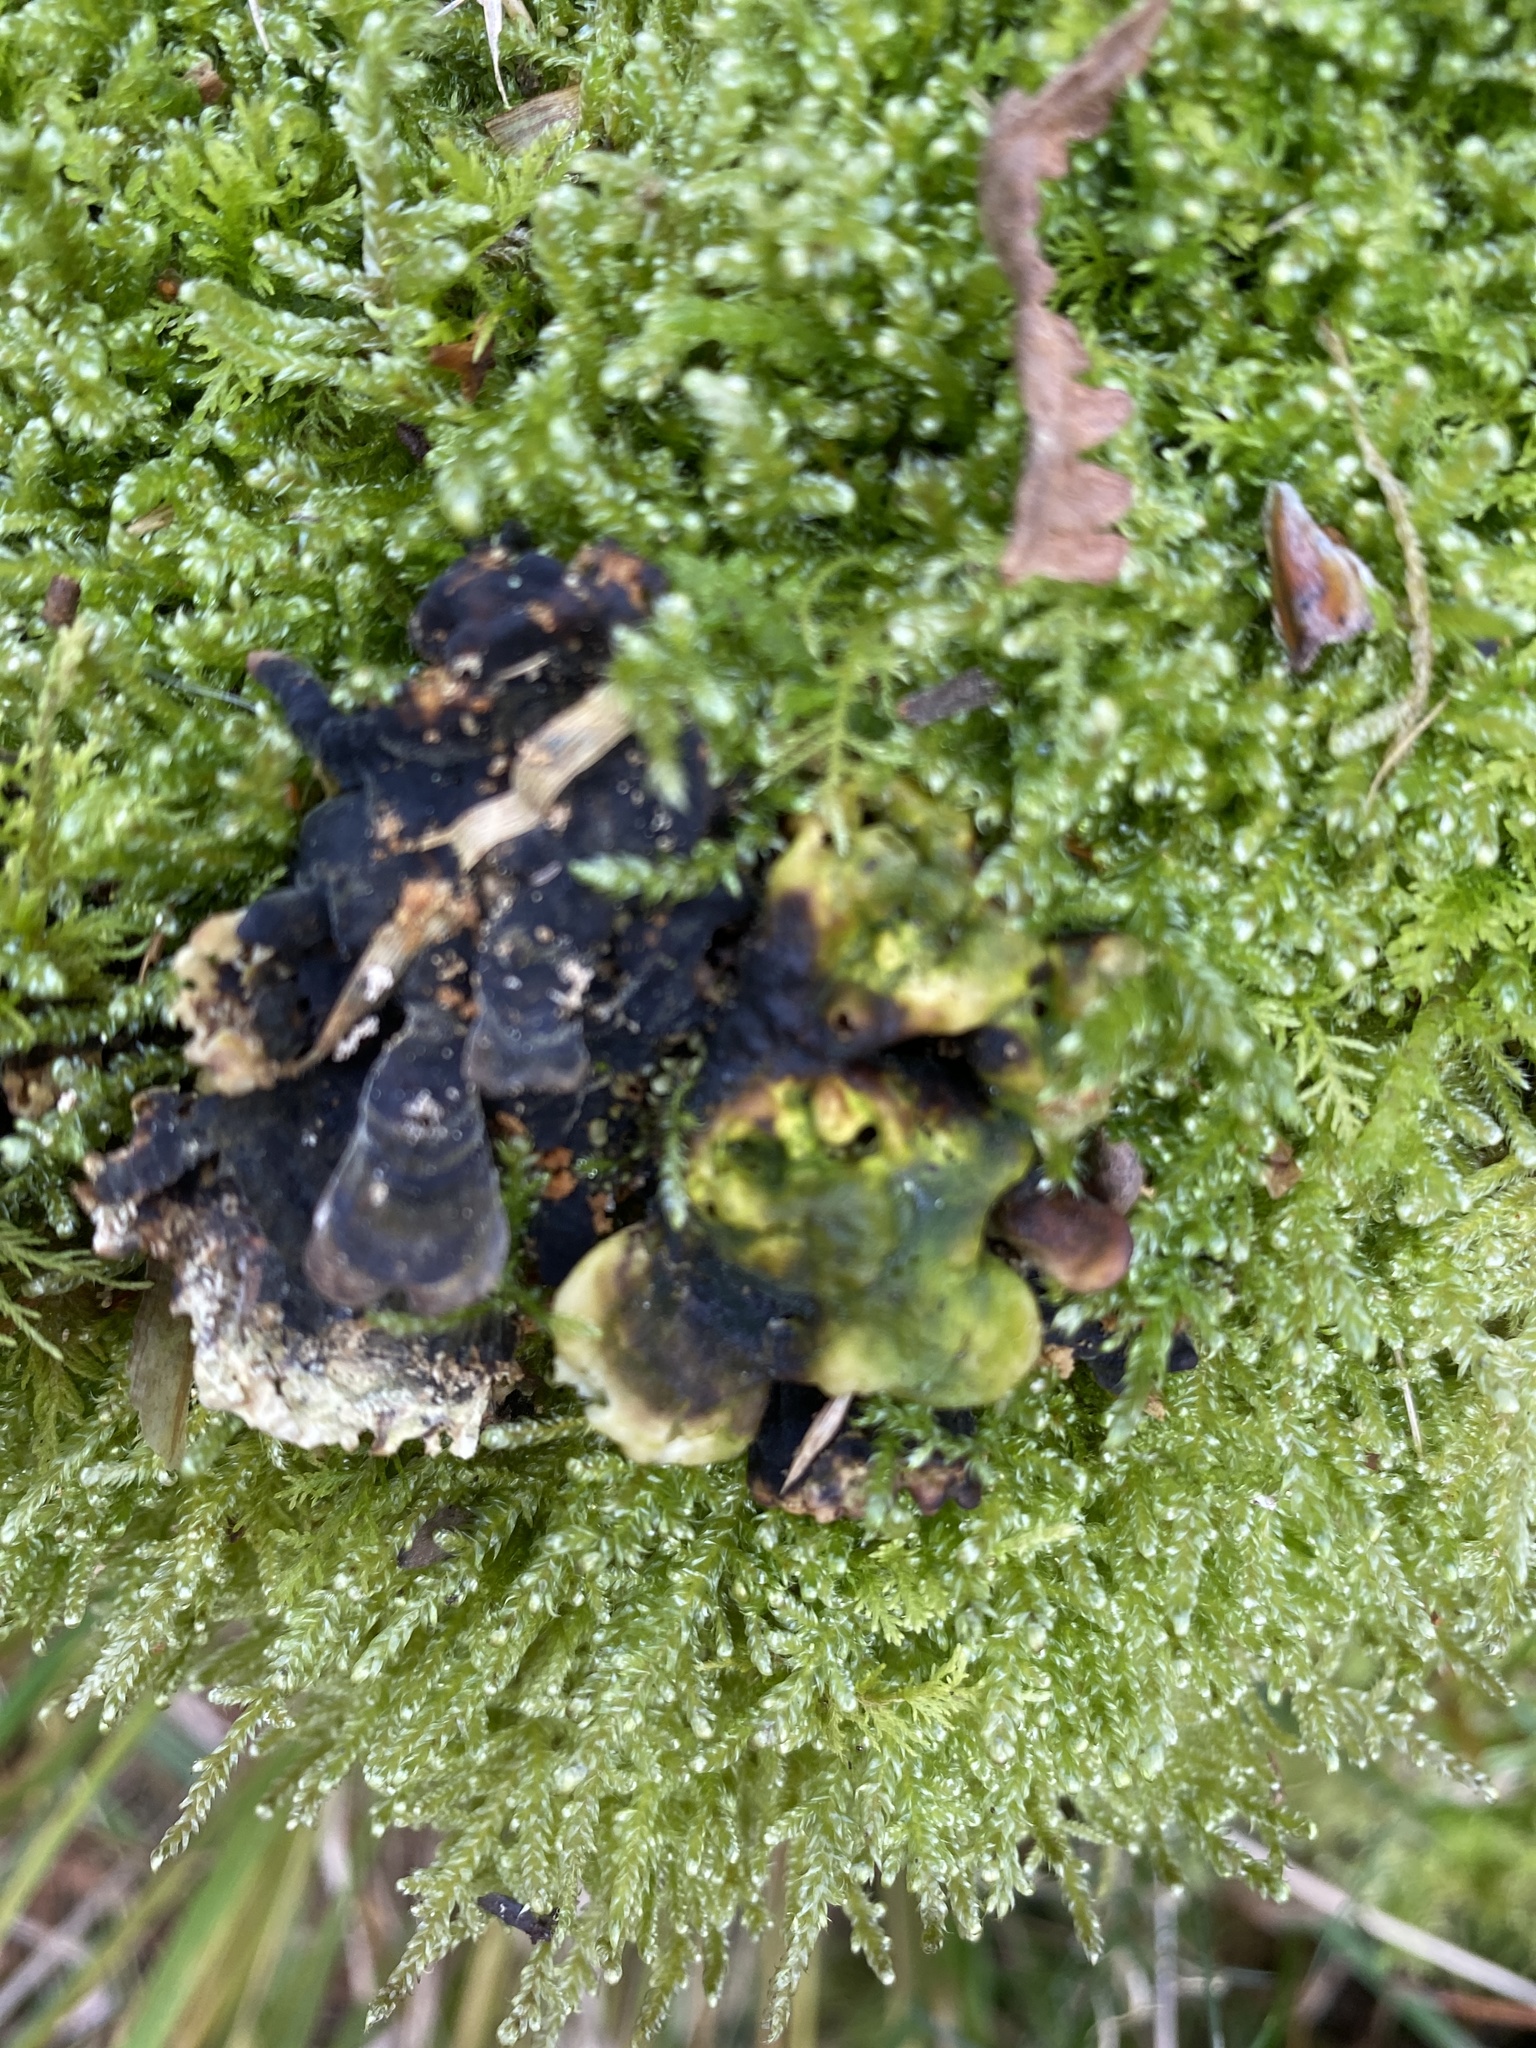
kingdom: Fungi
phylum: Basidiomycota
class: Agaricomycetes
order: Polyporales
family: Polyporaceae
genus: Trametes
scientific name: Trametes versicolor
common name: Turkeytail
